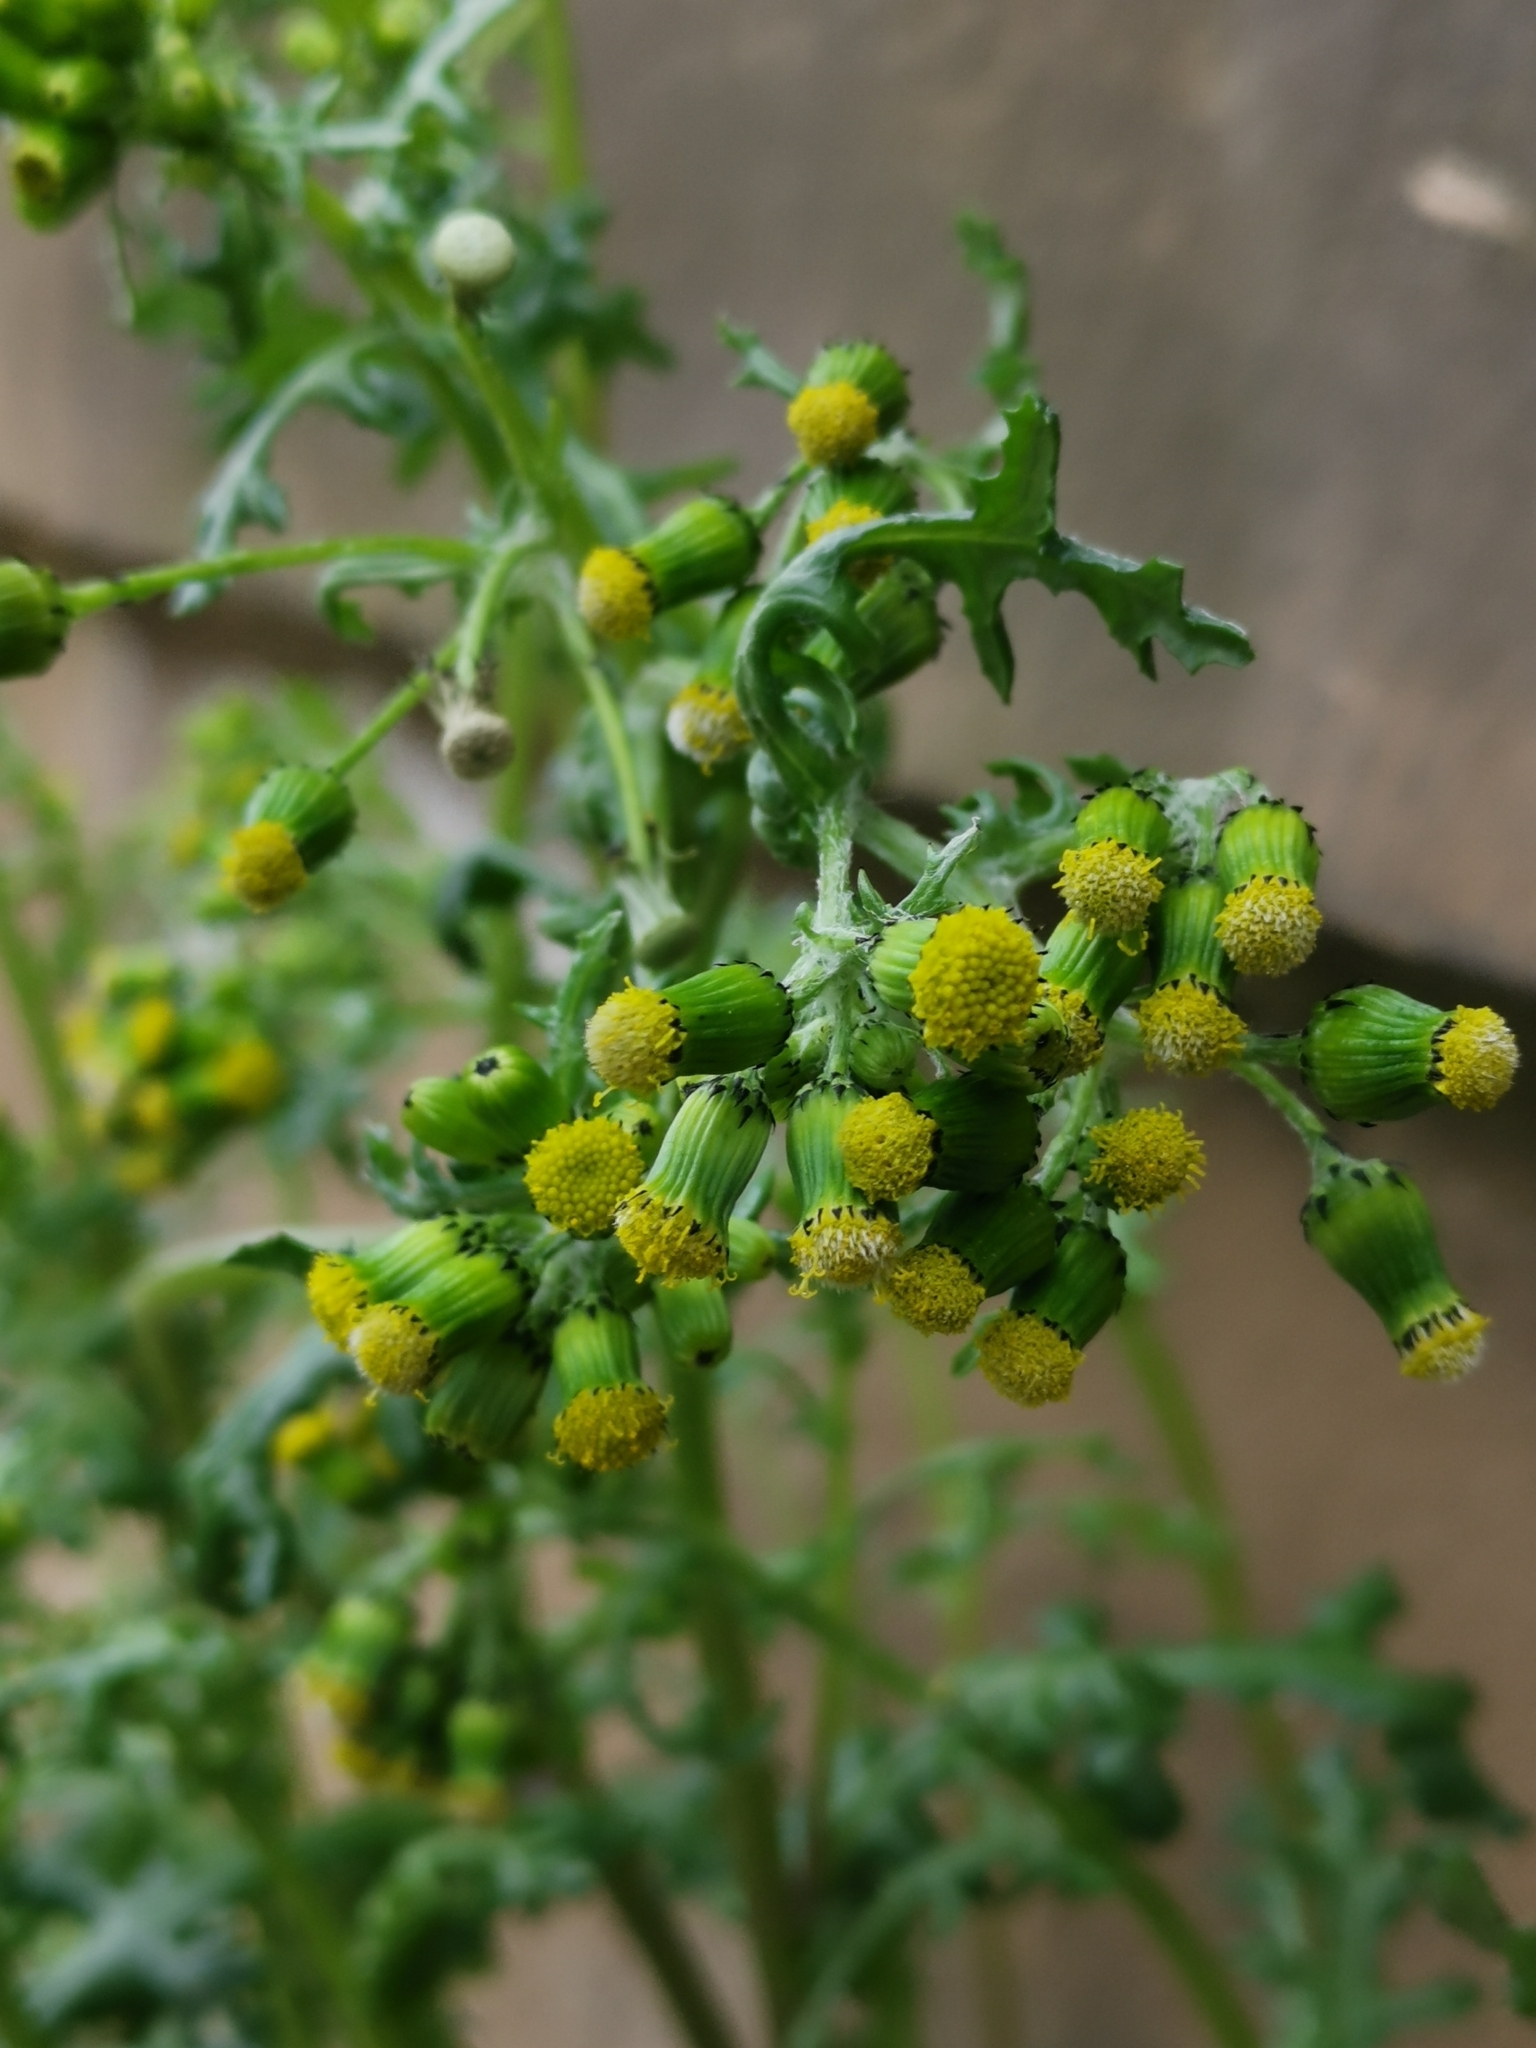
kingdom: Plantae
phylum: Tracheophyta
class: Magnoliopsida
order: Asterales
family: Asteraceae
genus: Senecio
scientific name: Senecio vulgaris
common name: Old-man-in-the-spring
